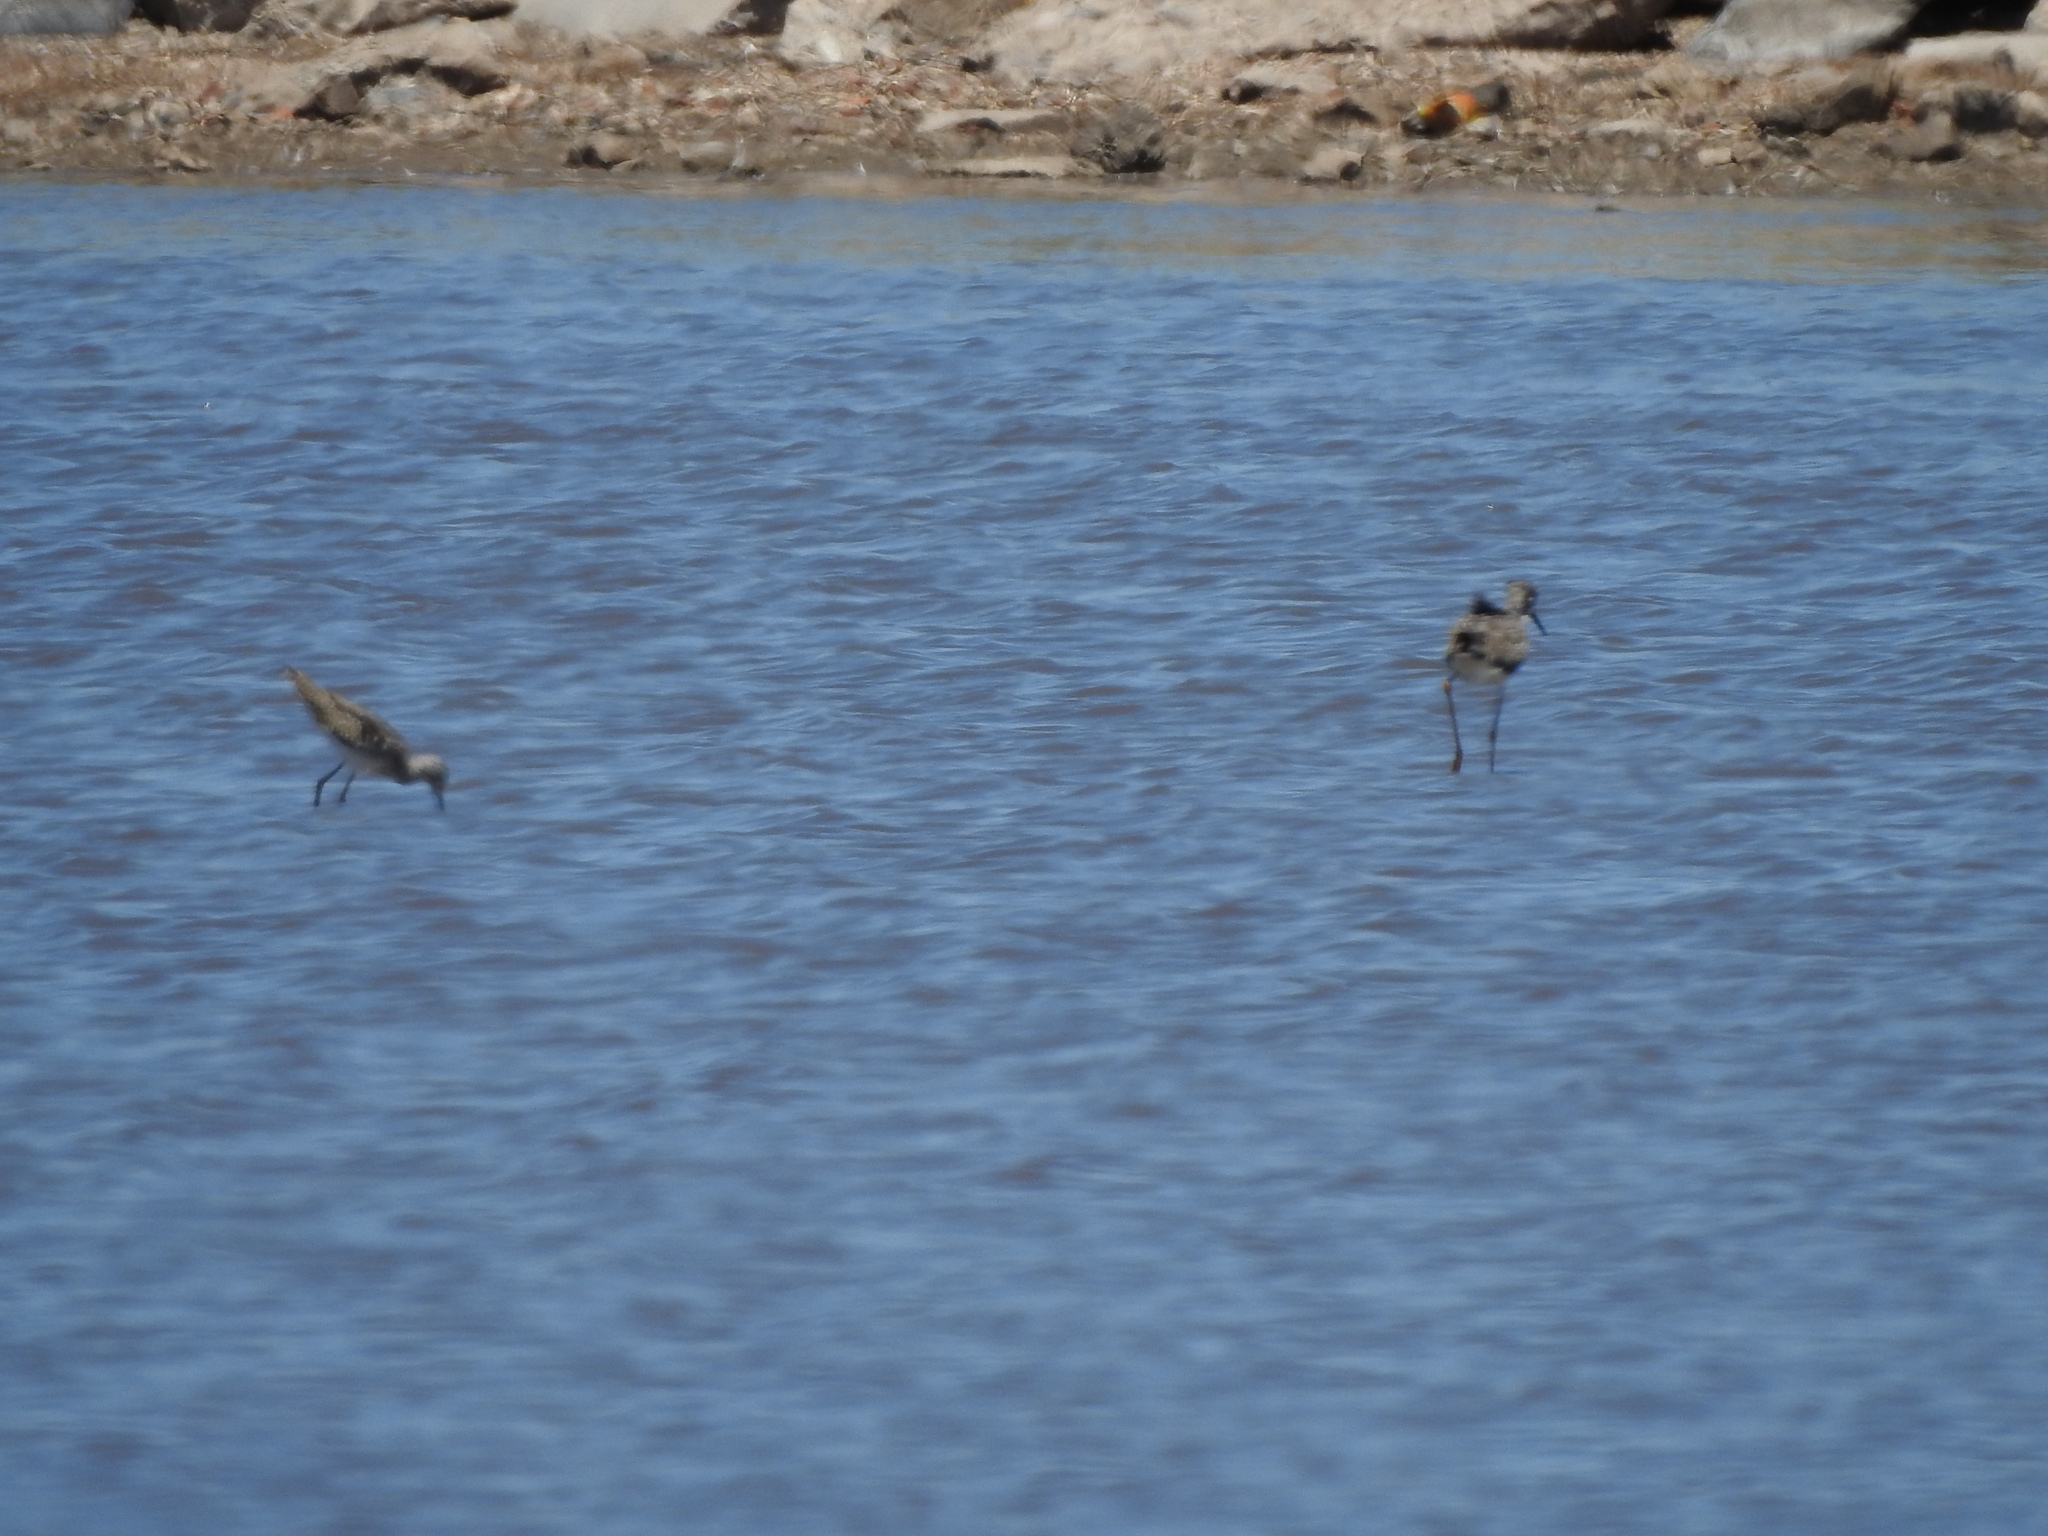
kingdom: Animalia
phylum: Chordata
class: Aves
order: Charadriiformes
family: Scolopacidae
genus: Tringa
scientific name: Tringa flavipes
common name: Lesser yellowlegs
